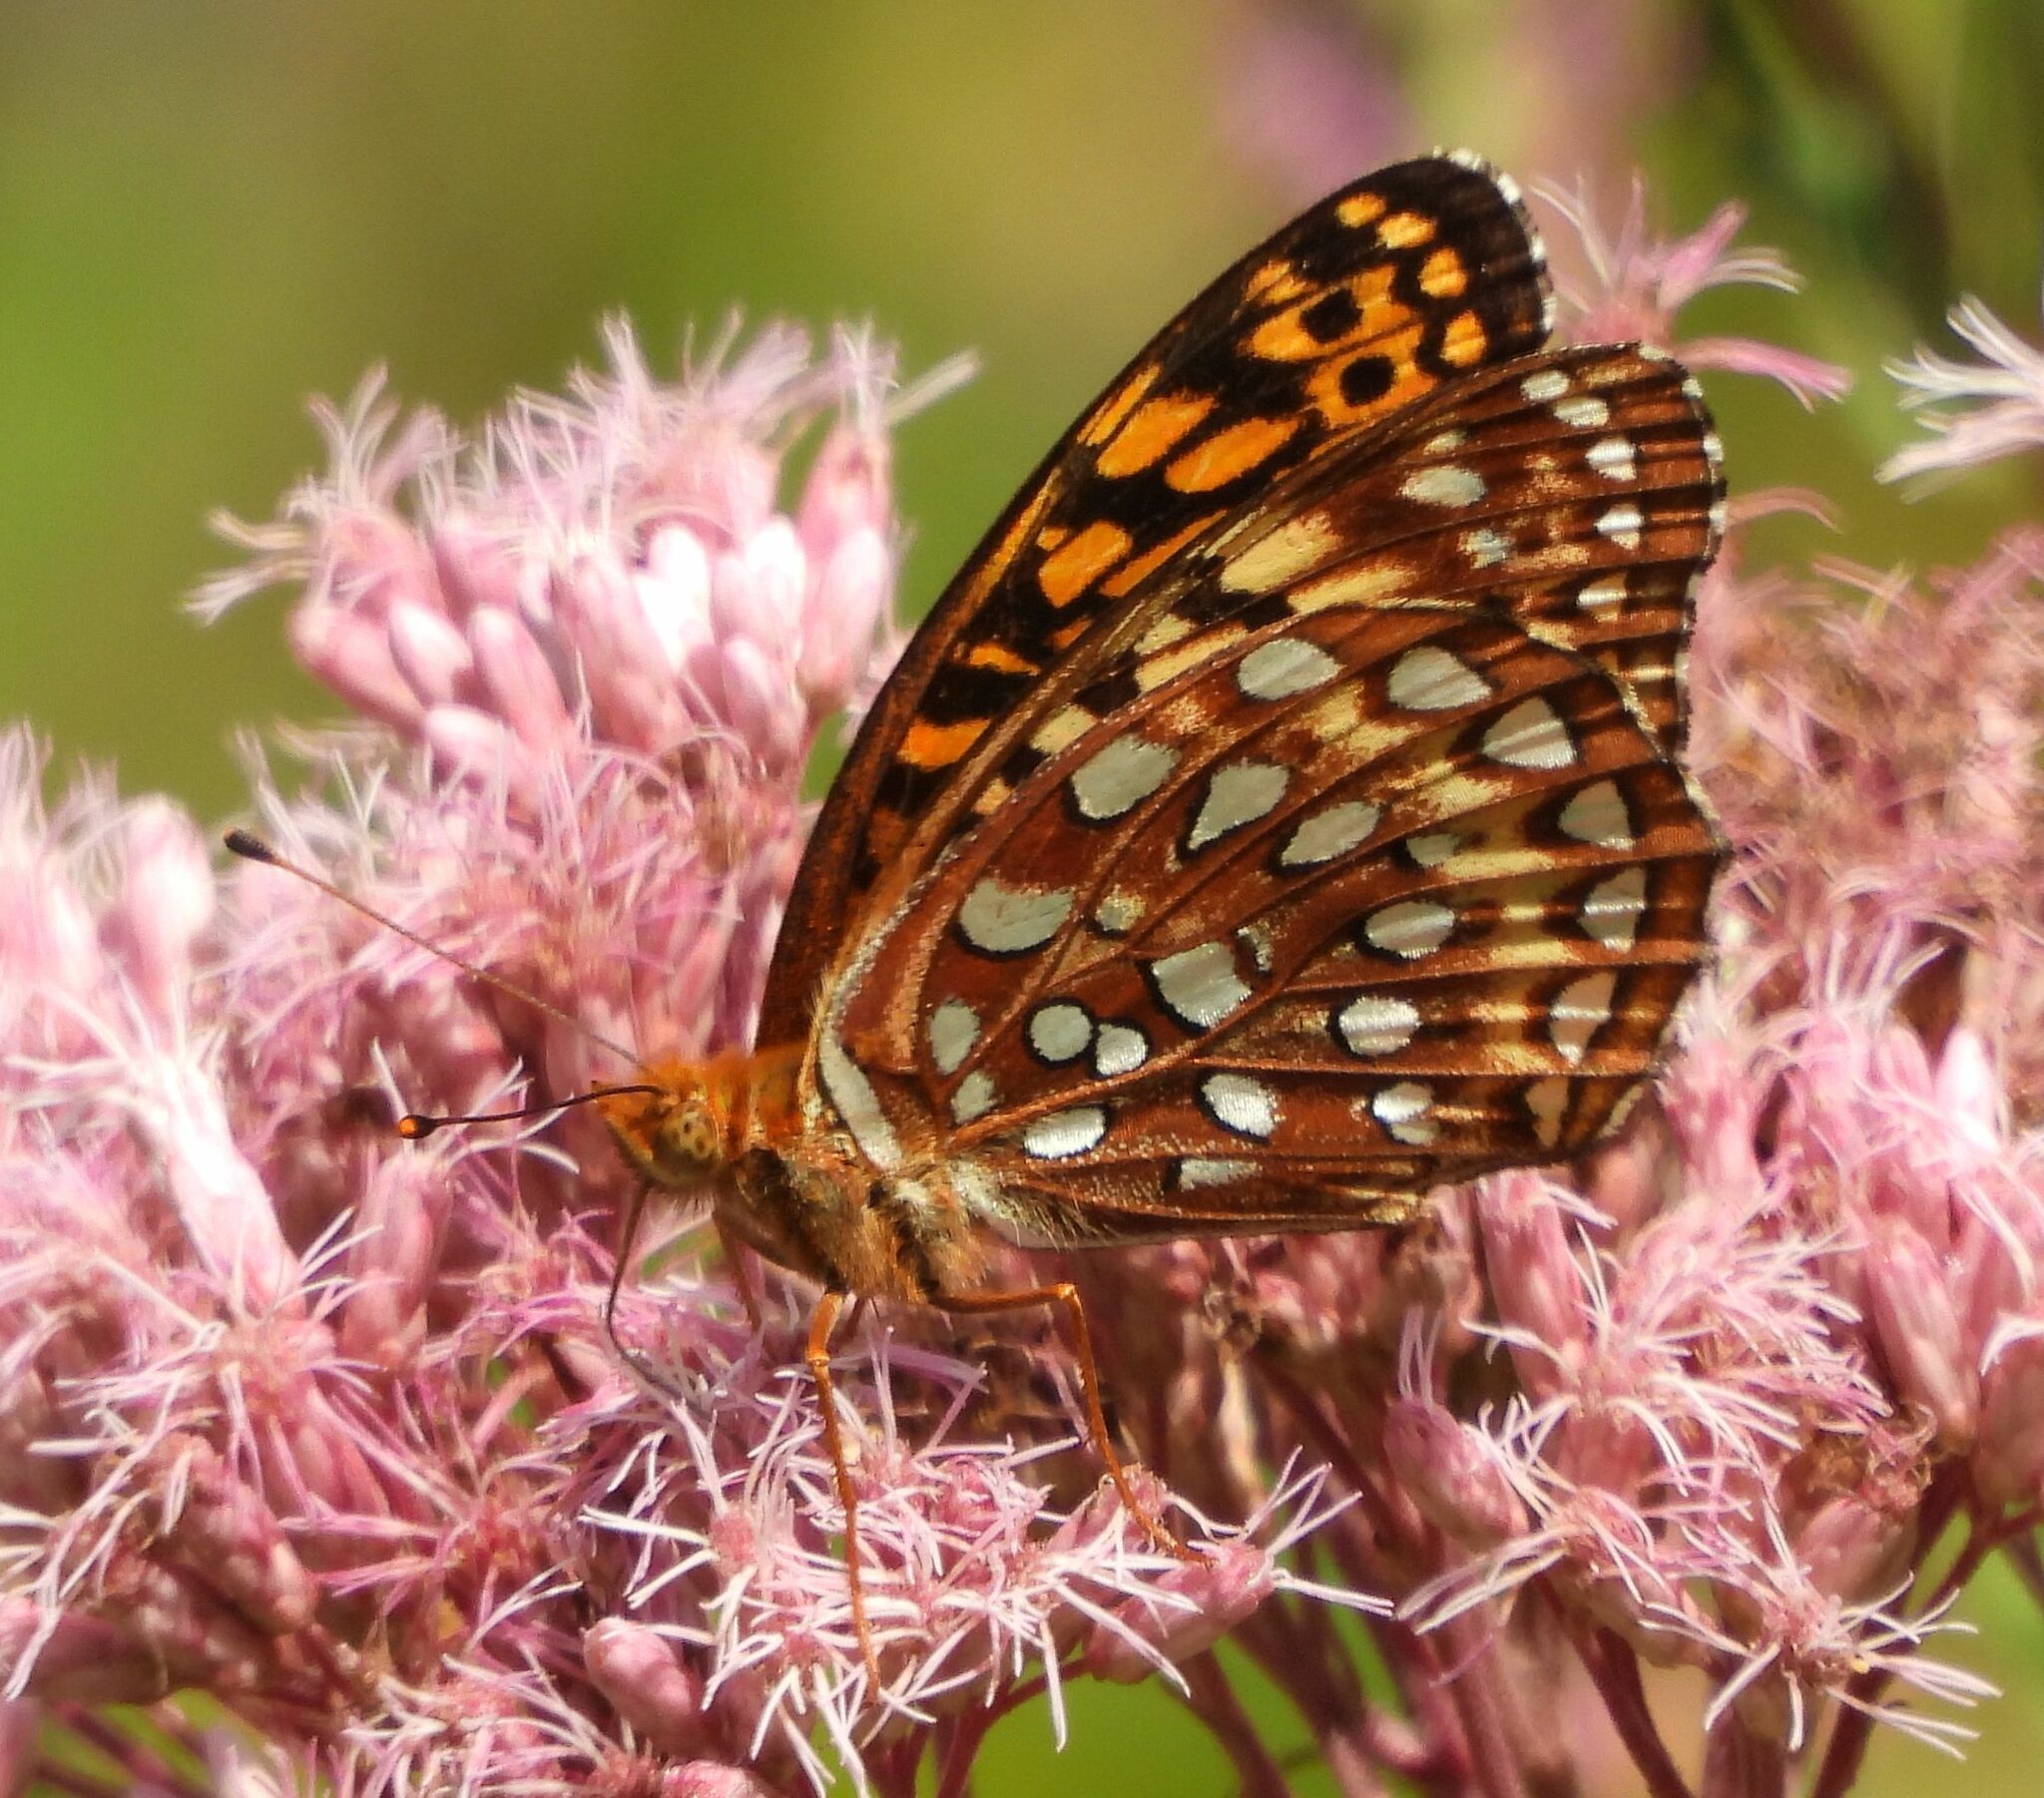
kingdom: Animalia
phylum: Arthropoda
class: Insecta
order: Lepidoptera
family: Nymphalidae
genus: Speyeria
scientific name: Speyeria aphrodite
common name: Aphrodite friitllary
